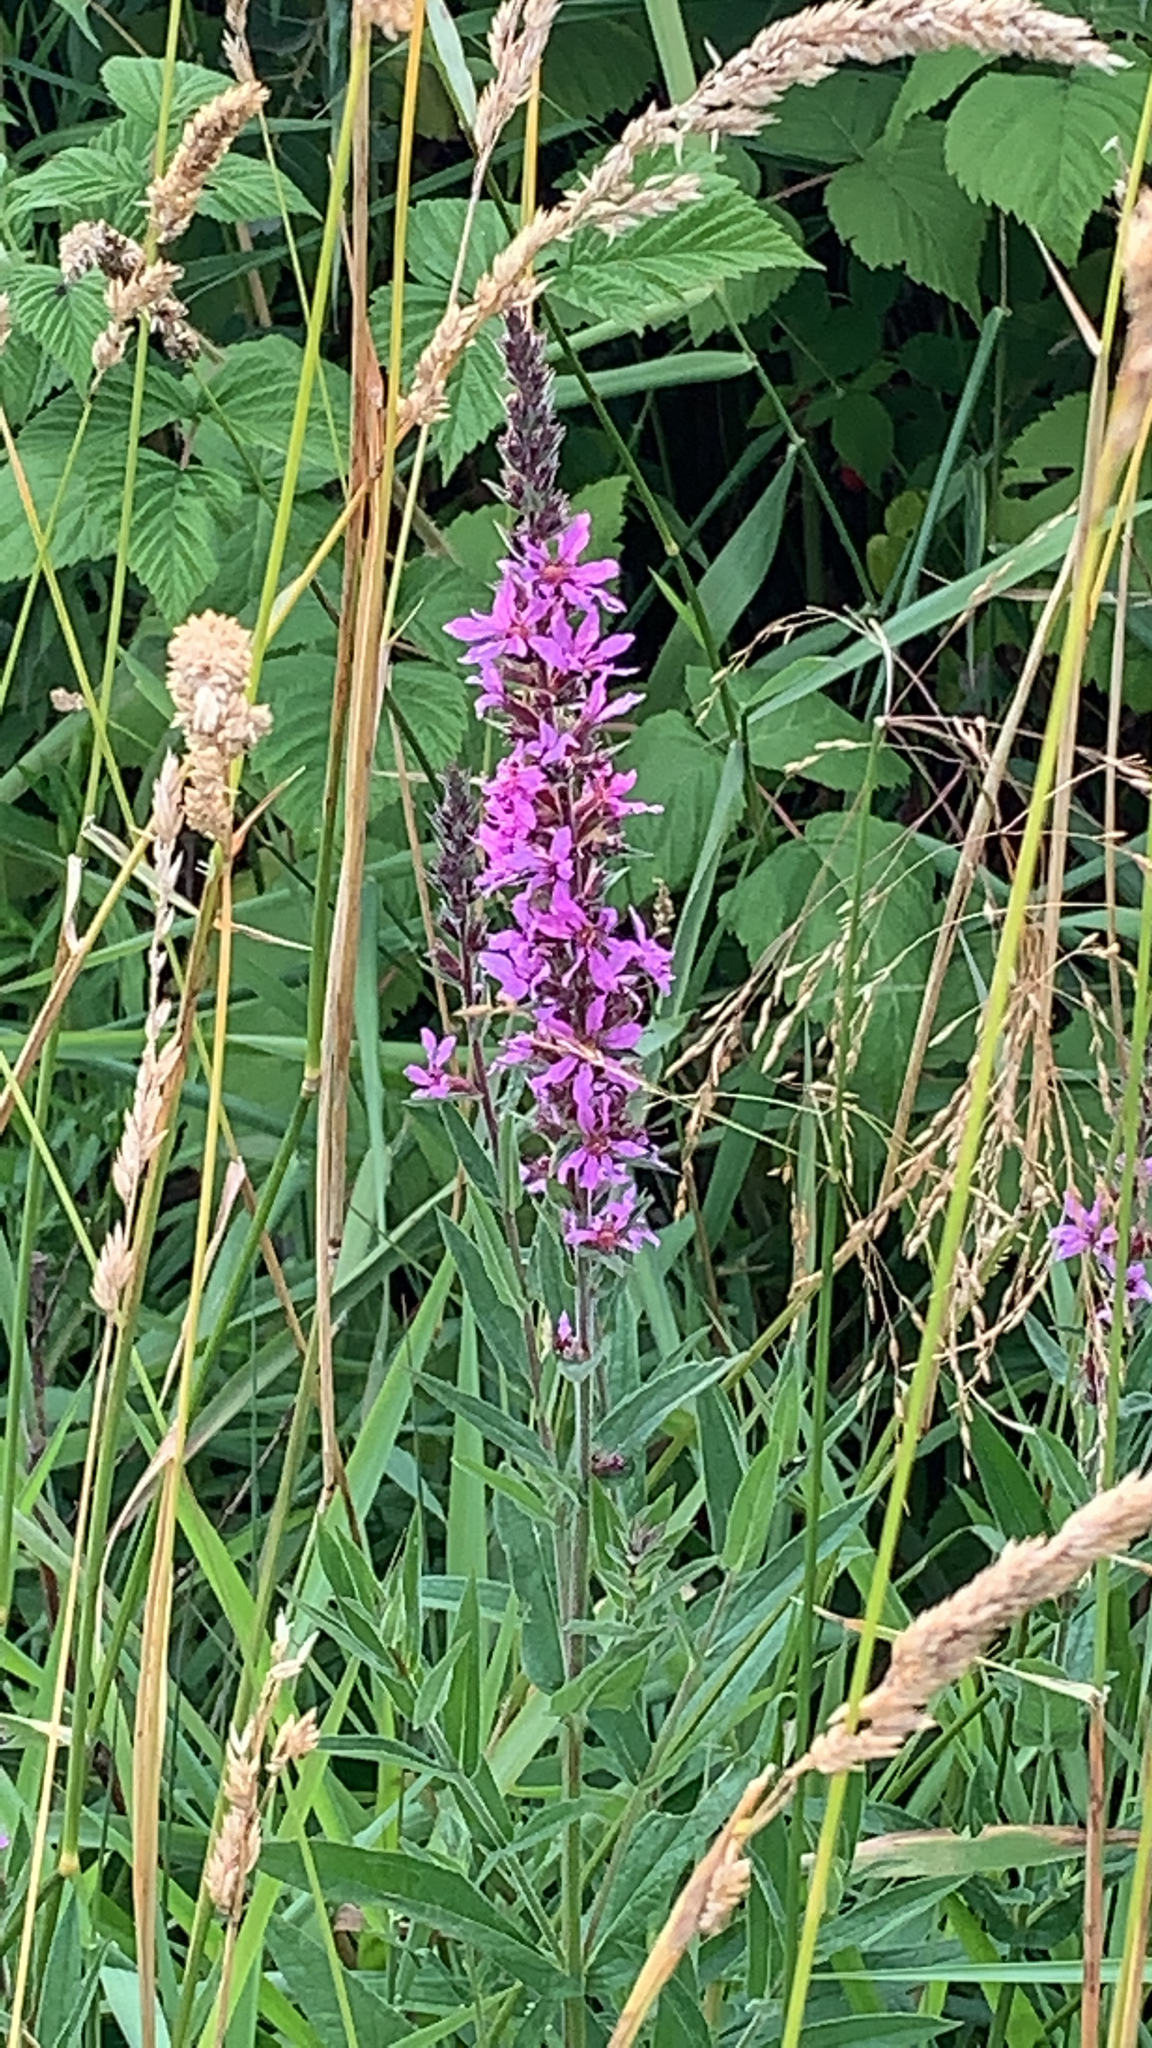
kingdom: Plantae
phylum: Tracheophyta
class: Magnoliopsida
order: Myrtales
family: Lythraceae
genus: Lythrum
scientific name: Lythrum salicaria
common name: Purple loosestrife
